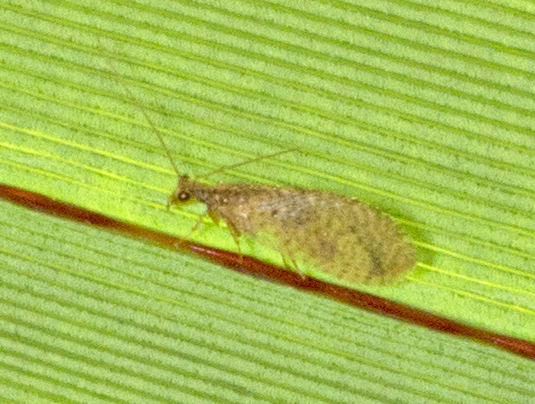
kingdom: Animalia
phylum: Arthropoda
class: Insecta
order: Neuroptera
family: Hemerobiidae
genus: Micromus
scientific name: Micromus tasmaniae
